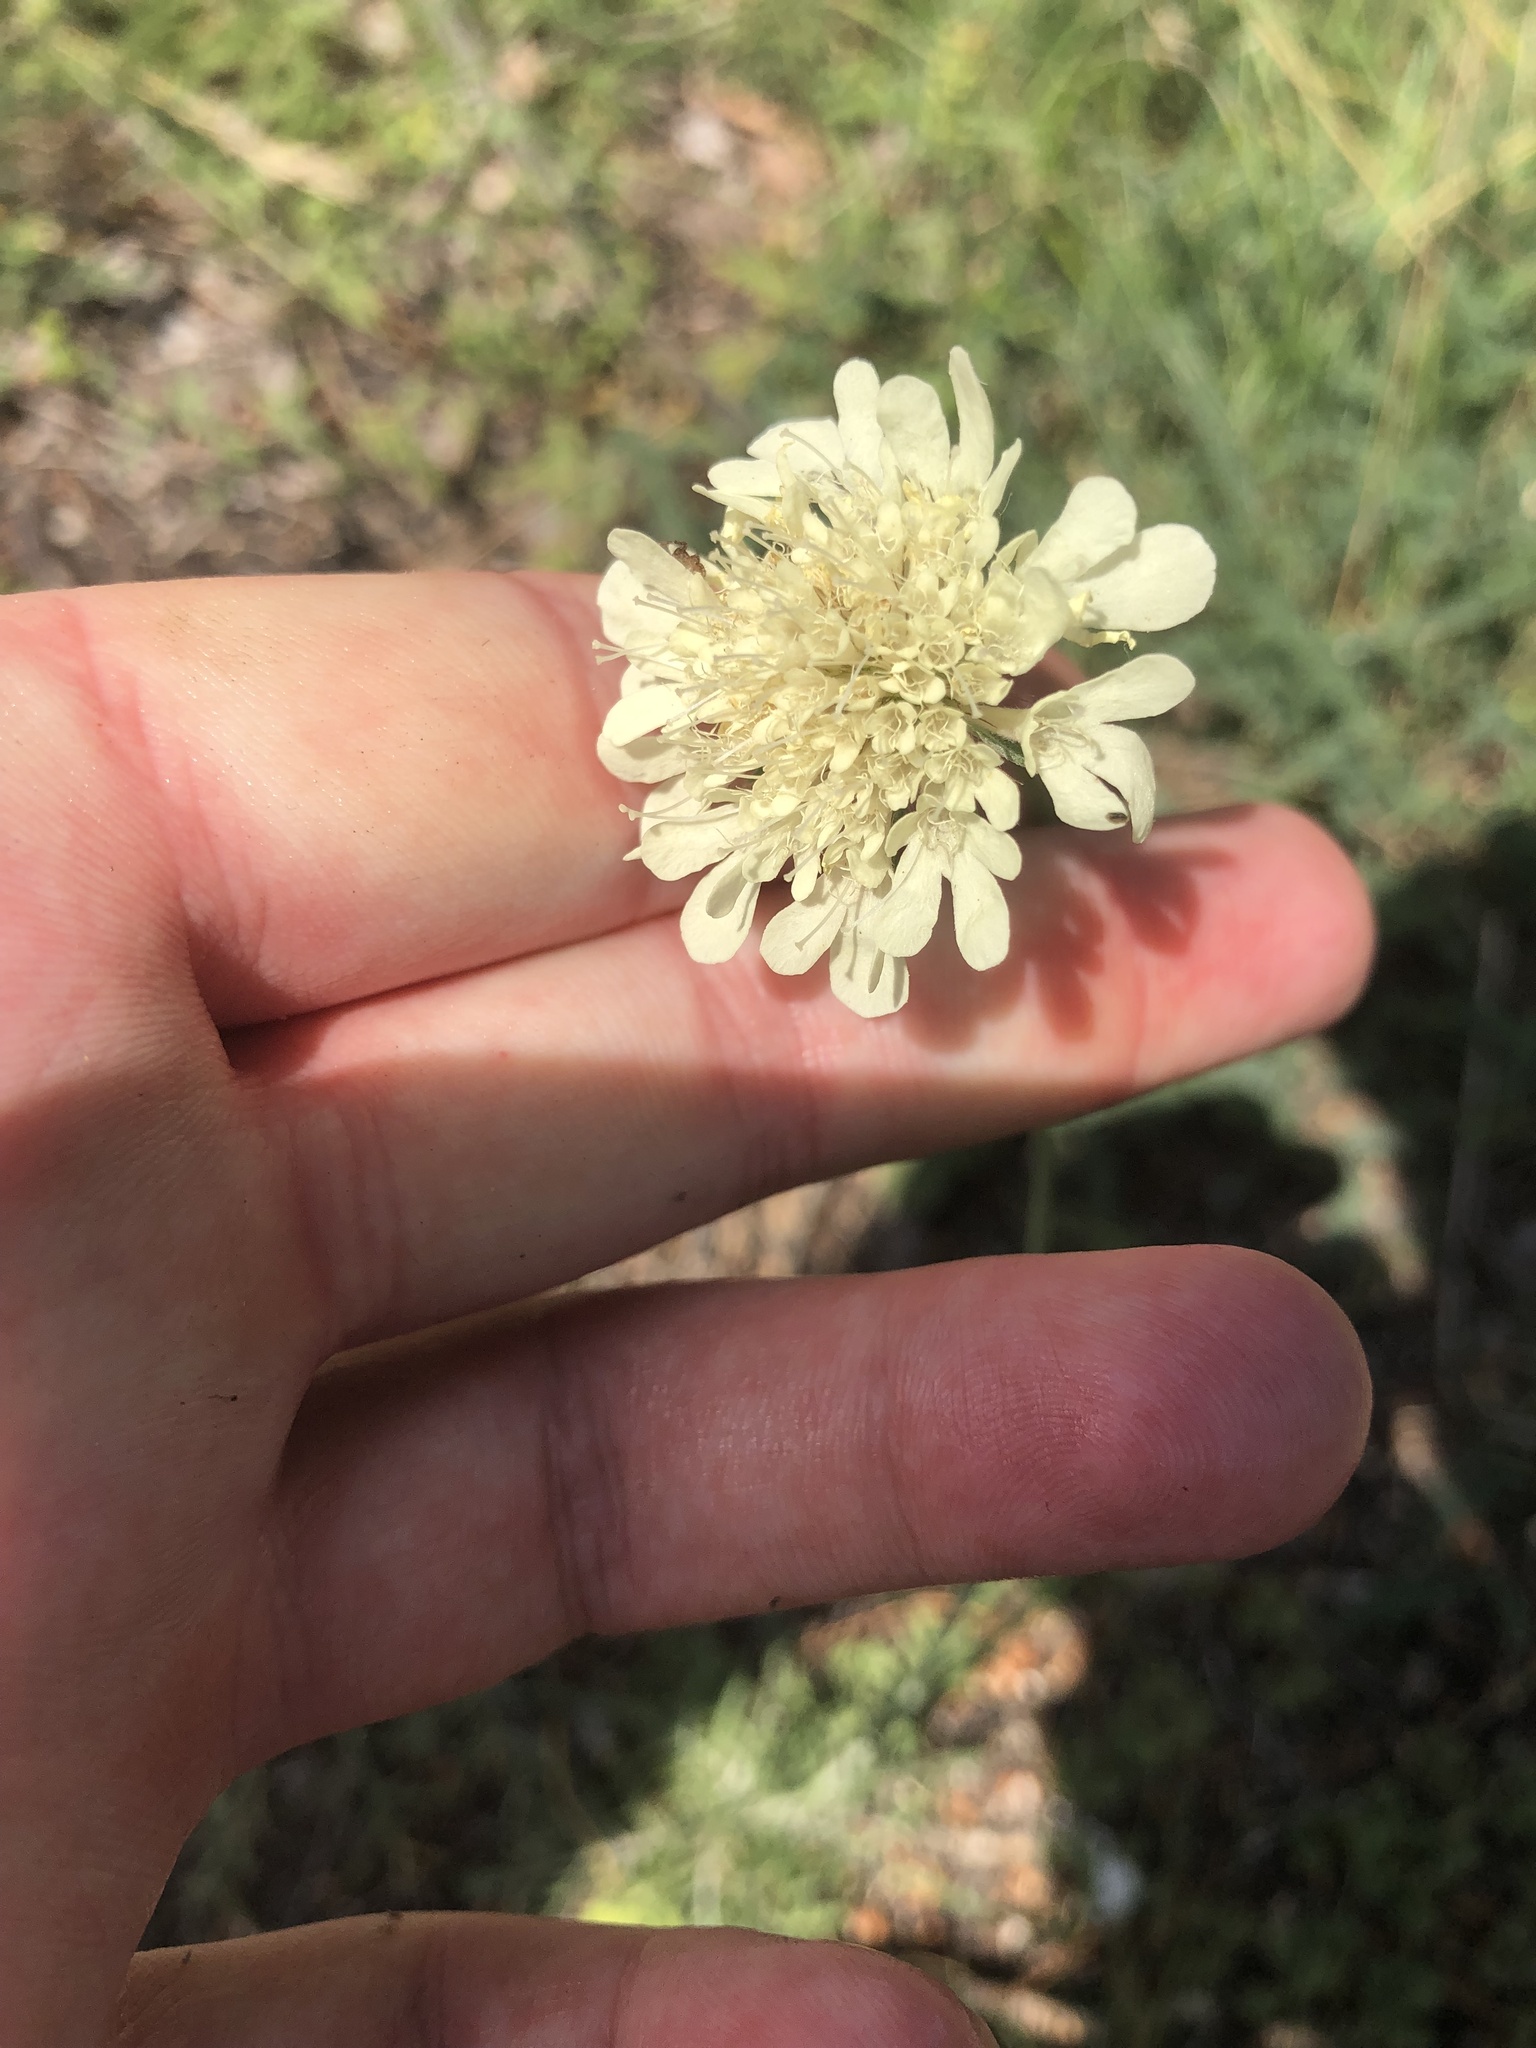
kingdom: Plantae
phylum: Tracheophyta
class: Magnoliopsida
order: Dipsacales
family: Caprifoliaceae
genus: Scabiosa
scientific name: Scabiosa ochroleuca
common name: Cream pincushions
